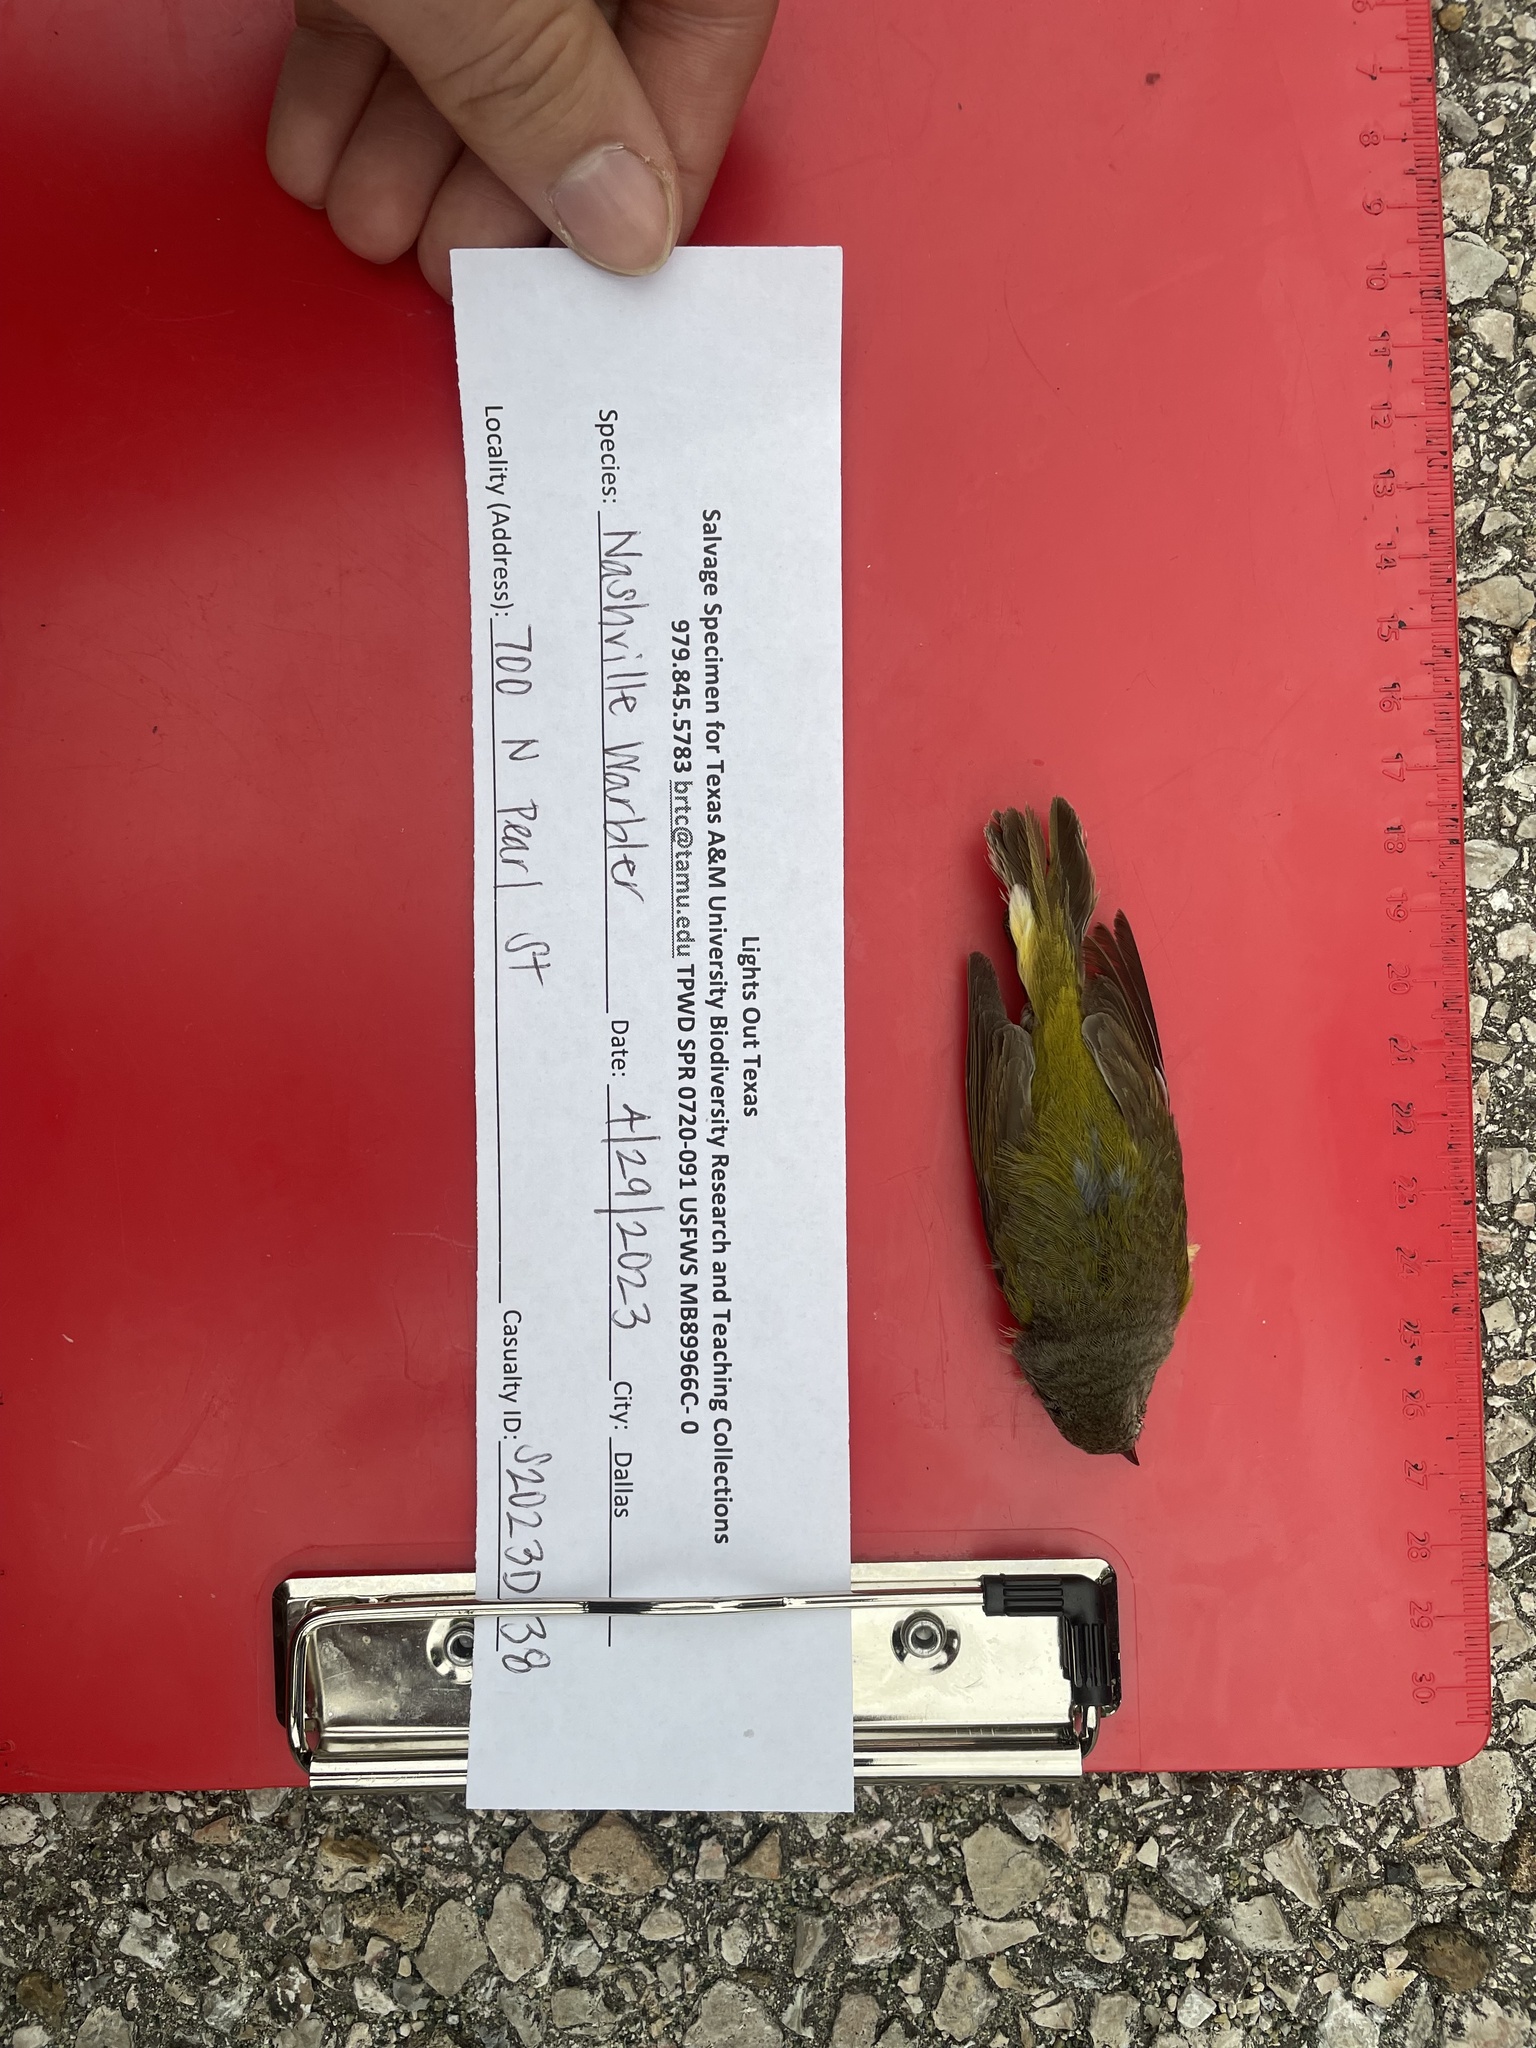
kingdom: Animalia
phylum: Chordata
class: Aves
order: Passeriformes
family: Parulidae
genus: Leiothlypis
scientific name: Leiothlypis ruficapilla
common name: Nashville warbler
